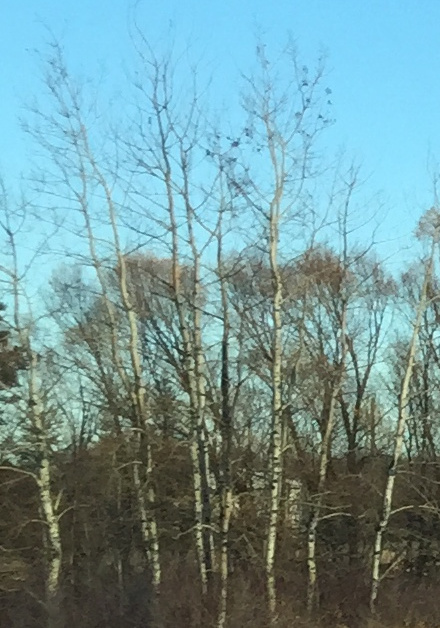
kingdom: Plantae
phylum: Tracheophyta
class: Magnoliopsida
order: Malpighiales
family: Salicaceae
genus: Populus
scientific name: Populus tremuloides
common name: Quaking aspen
